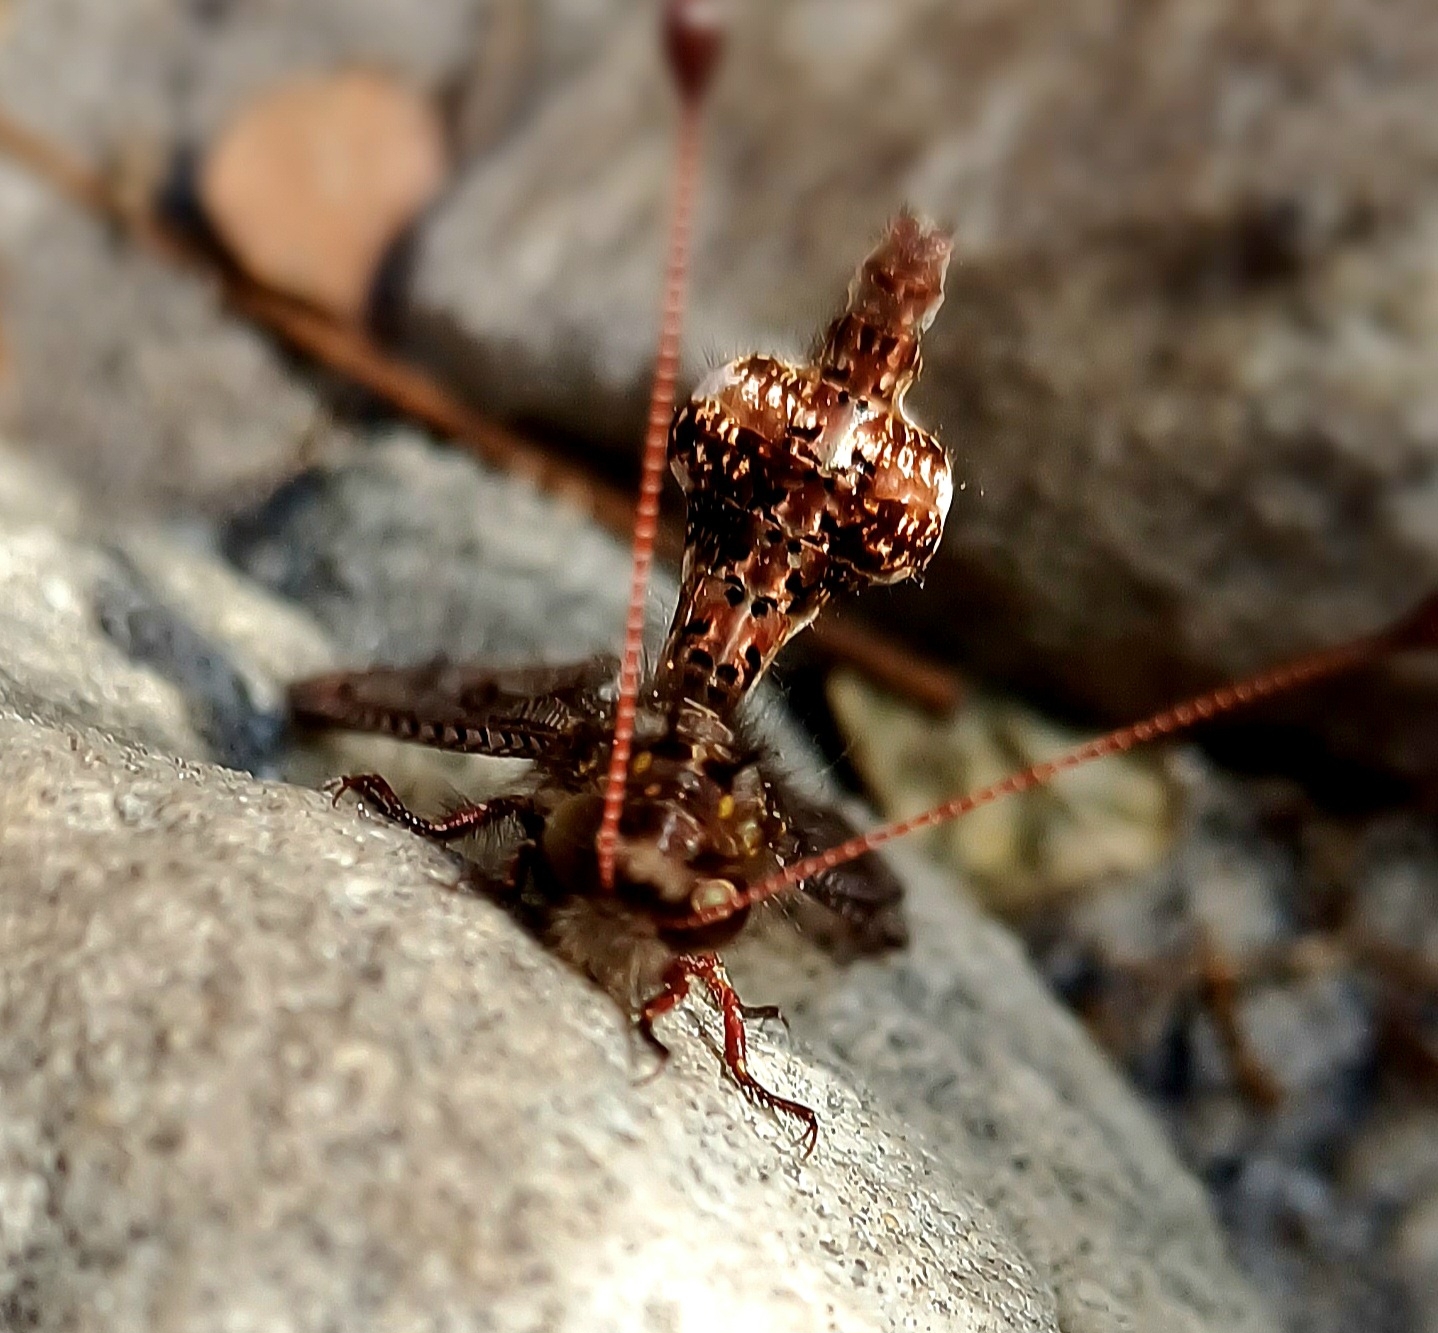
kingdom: Animalia
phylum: Arthropoda
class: Insecta
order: Neuroptera
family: Ascalaphidae
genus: Nephoneura
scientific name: Nephoneura capensis
